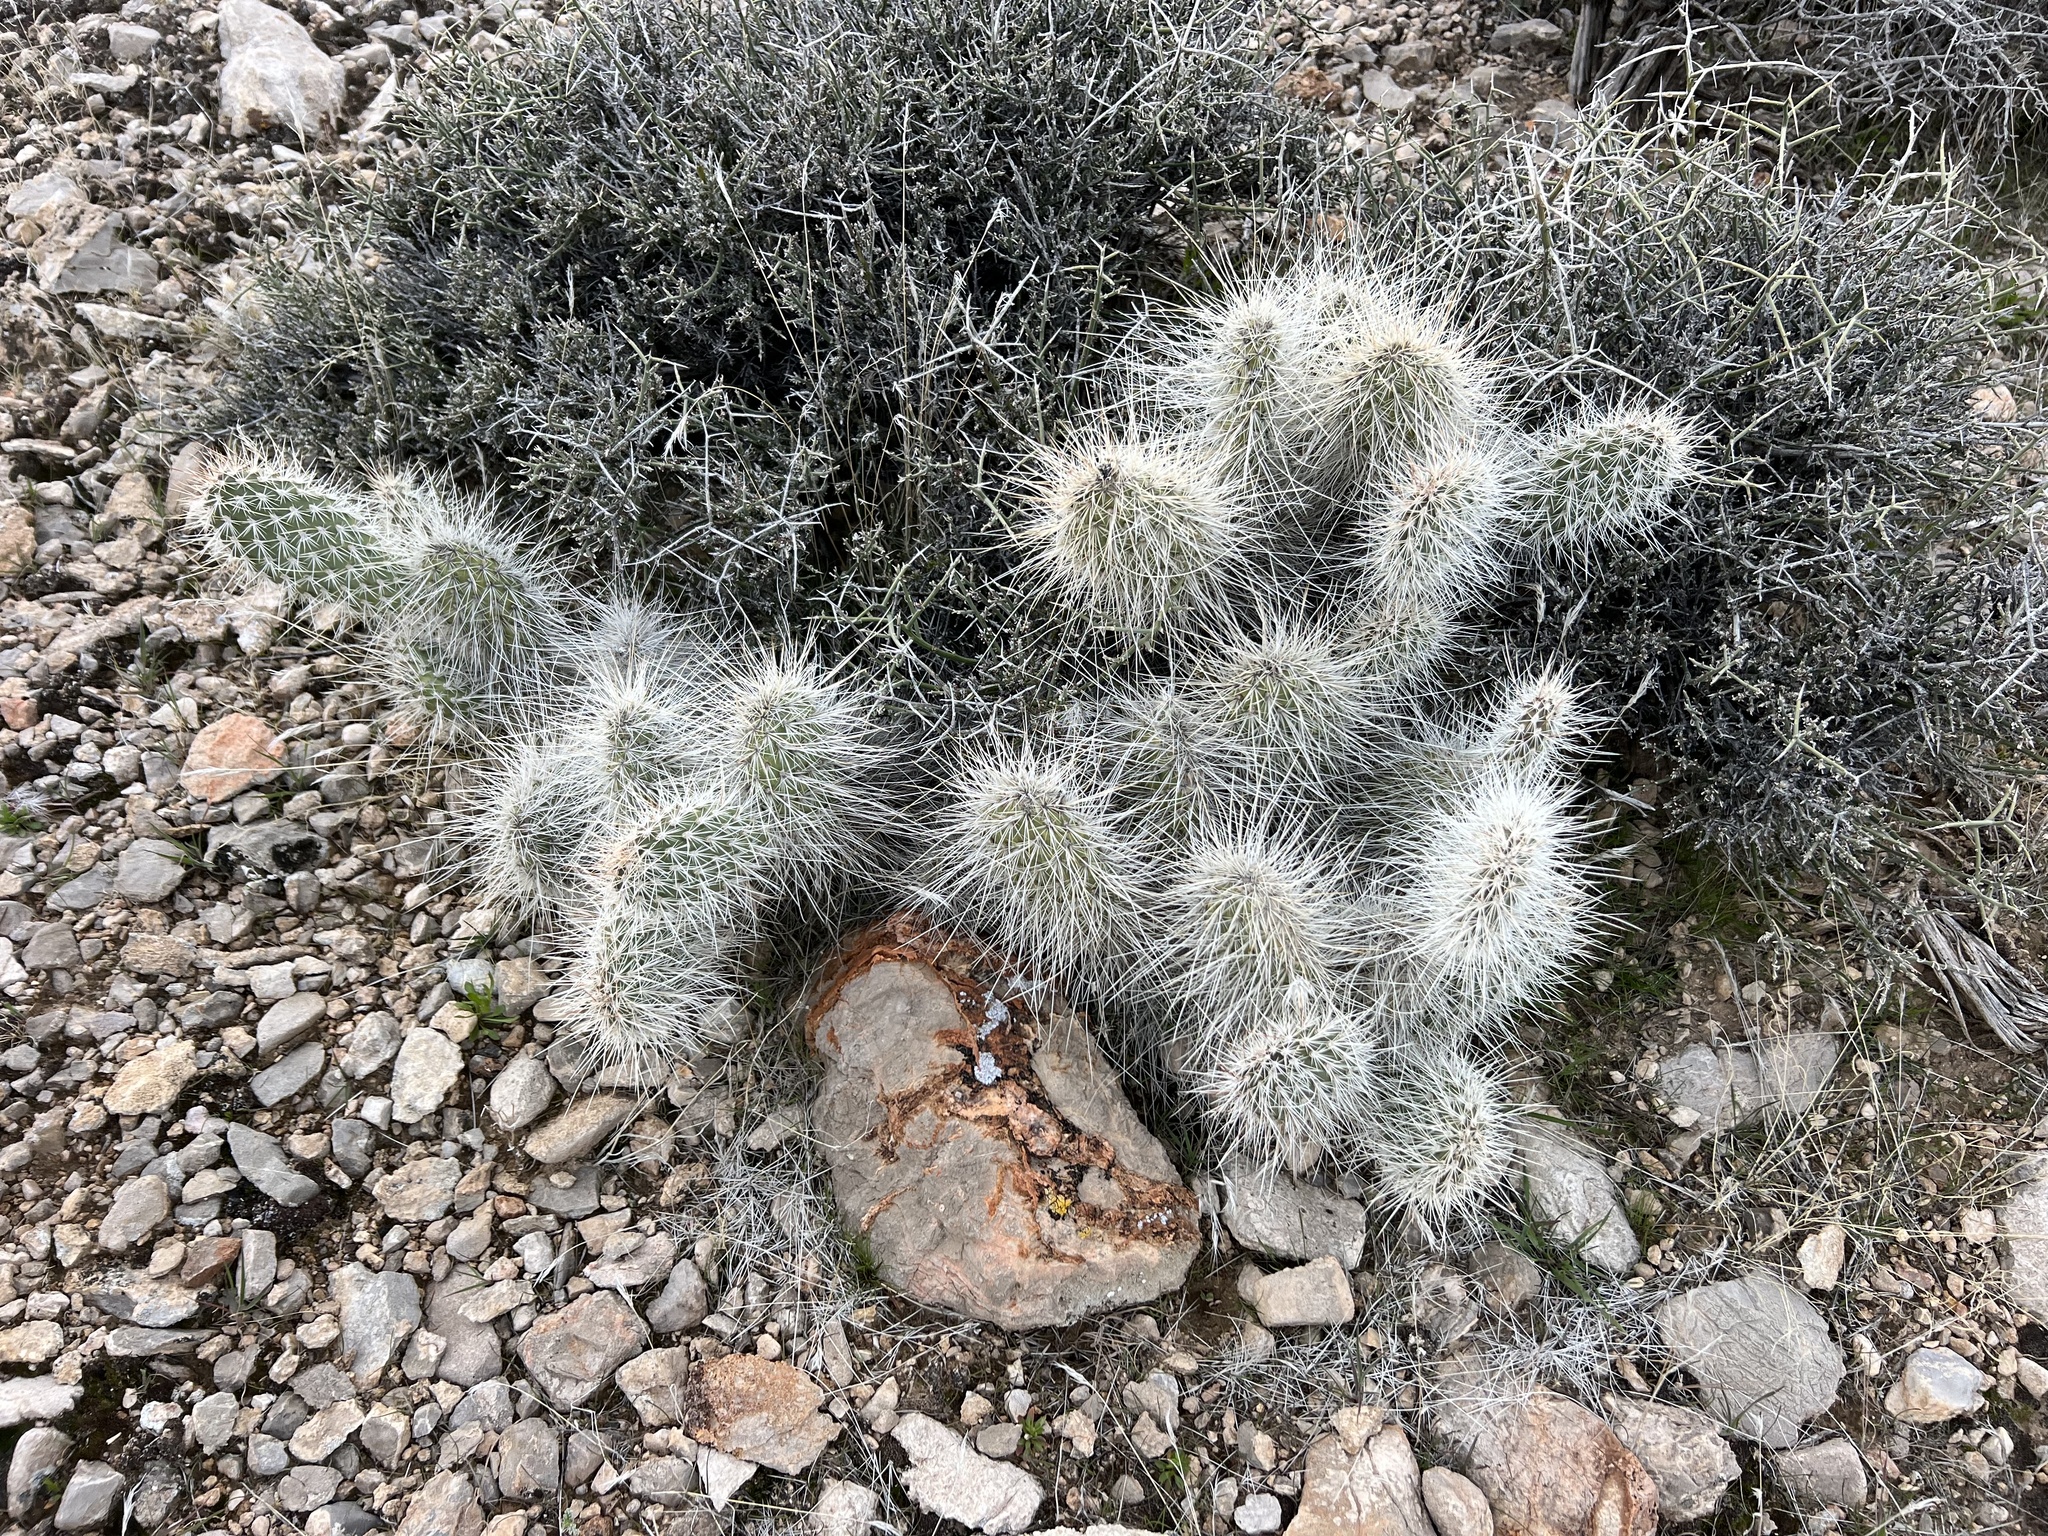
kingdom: Plantae
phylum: Tracheophyta
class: Magnoliopsida
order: Caryophyllales
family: Cactaceae
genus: Opuntia
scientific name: Opuntia polyacantha
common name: Plains prickly-pear
